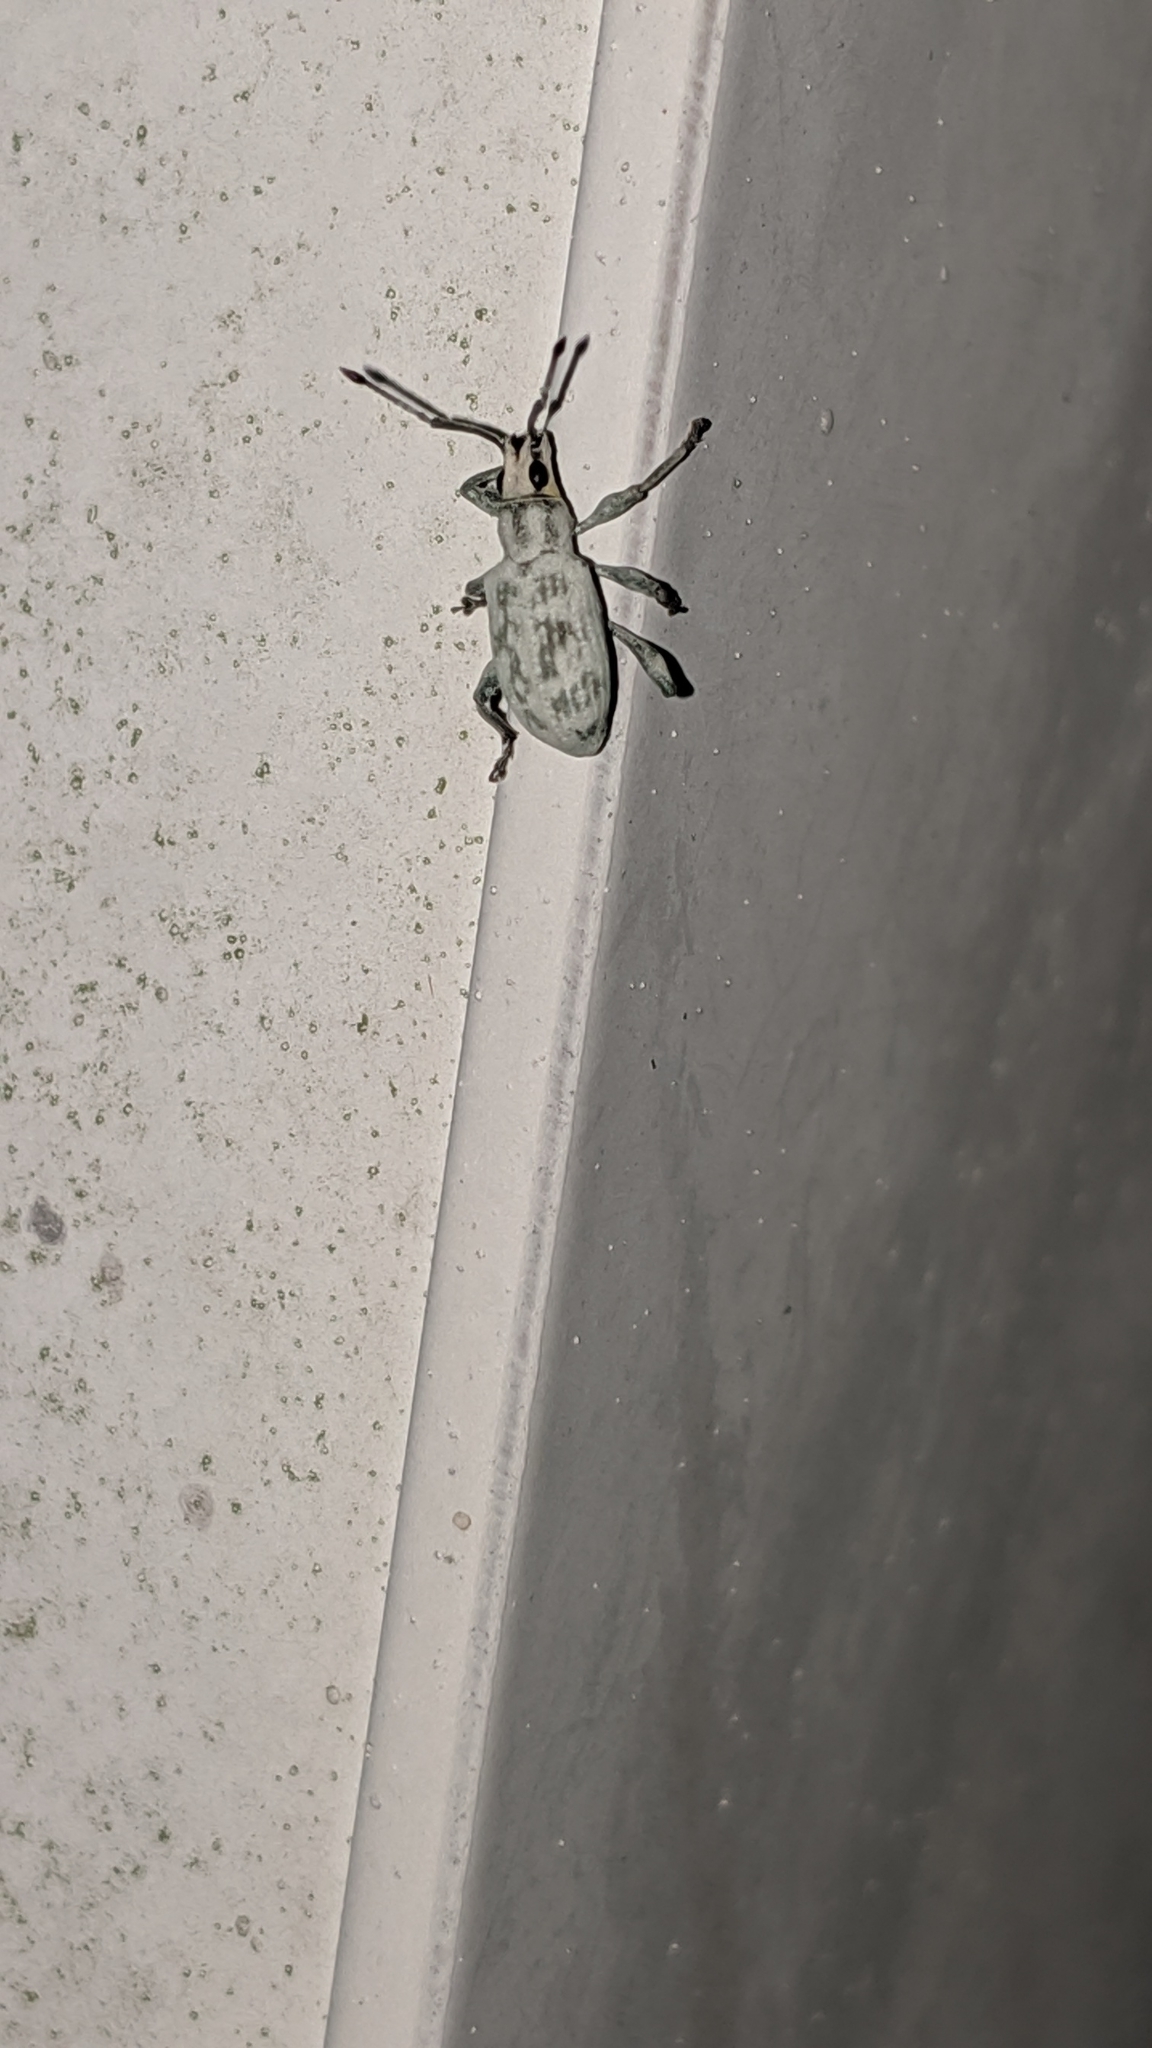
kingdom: Animalia
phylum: Arthropoda
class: Insecta
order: Coleoptera
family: Curculionidae
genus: Myllocerus
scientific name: Myllocerus undecimpustulatus
